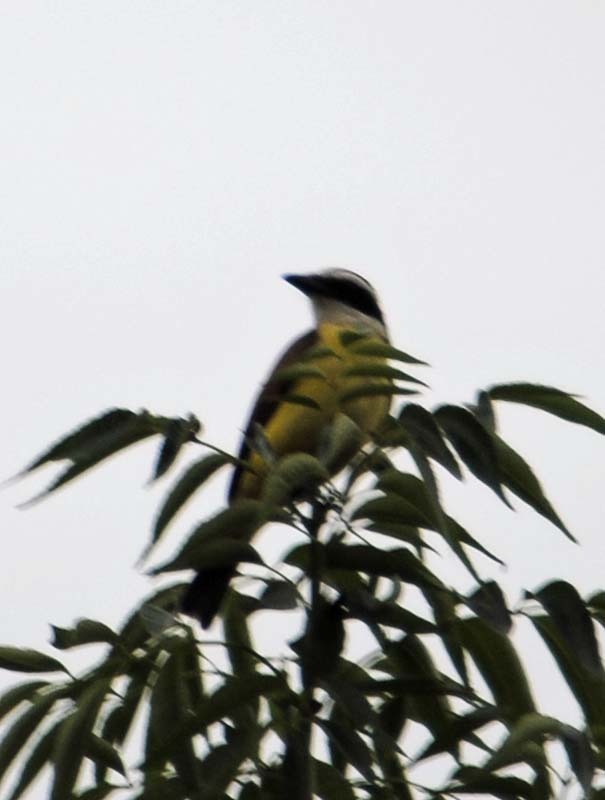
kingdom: Animalia
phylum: Chordata
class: Aves
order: Passeriformes
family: Tyrannidae
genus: Pitangus
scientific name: Pitangus sulphuratus
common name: Great kiskadee
